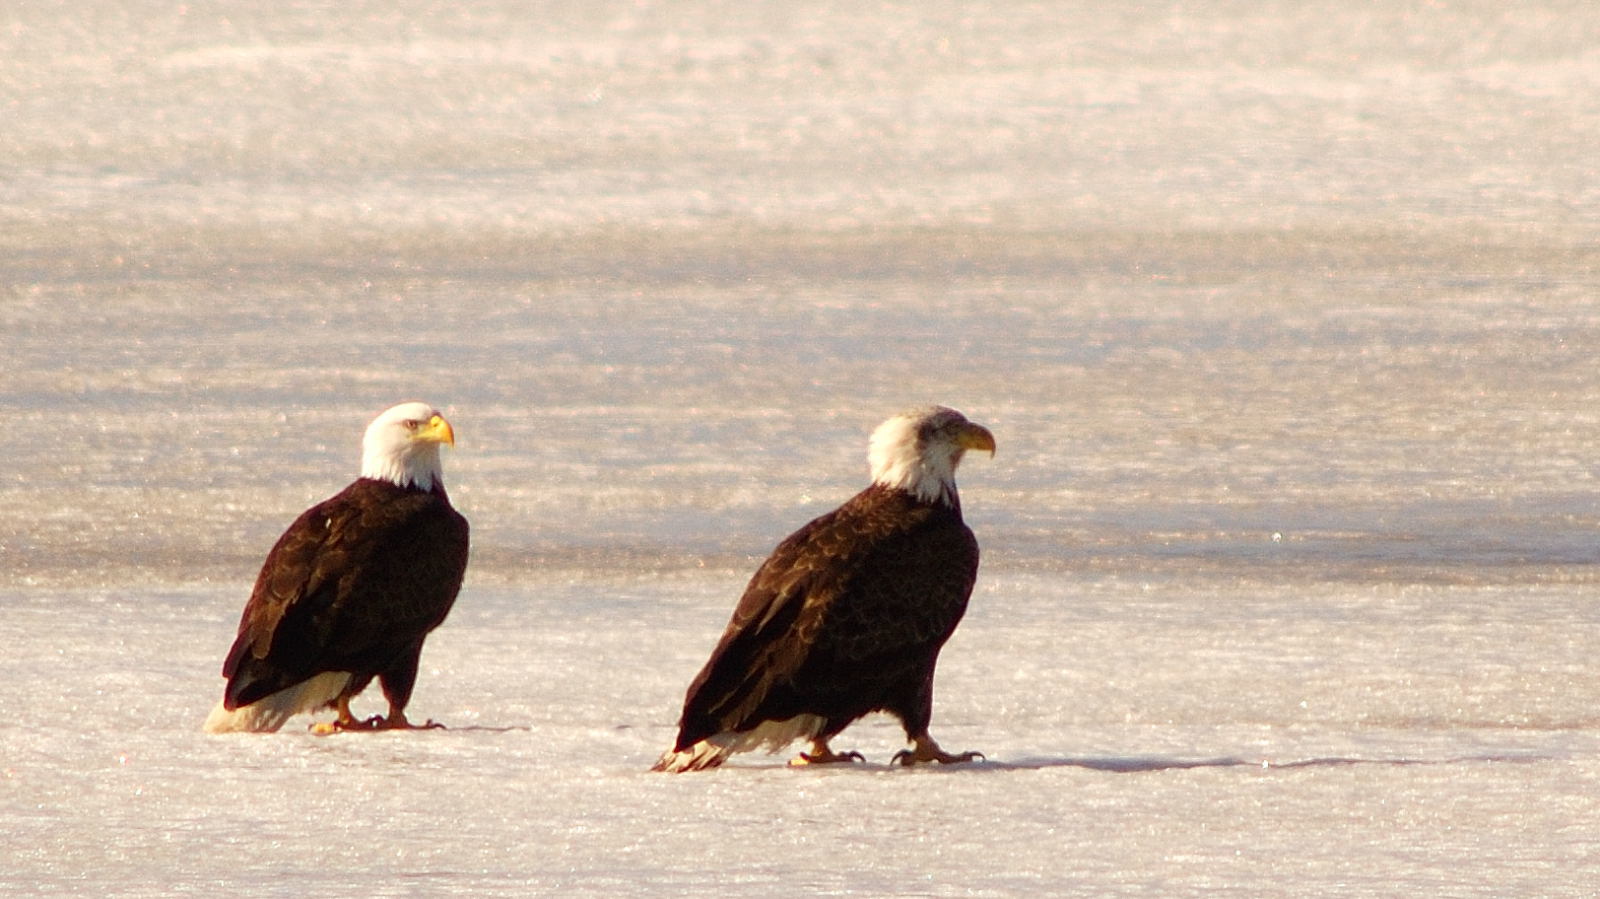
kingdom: Animalia
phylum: Chordata
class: Aves
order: Accipitriformes
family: Accipitridae
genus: Haliaeetus
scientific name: Haliaeetus leucocephalus
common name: Bald eagle
